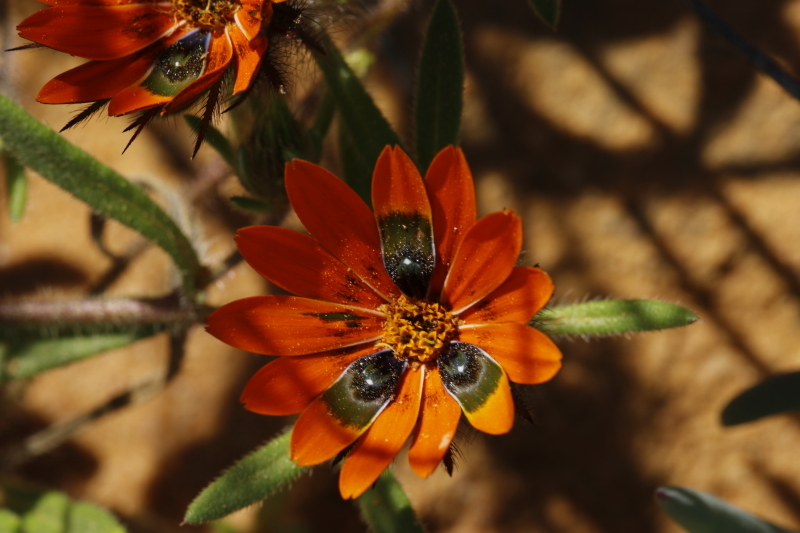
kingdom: Plantae
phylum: Tracheophyta
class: Magnoliopsida
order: Asterales
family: Asteraceae
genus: Gorteria
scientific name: Gorteria diffusa
